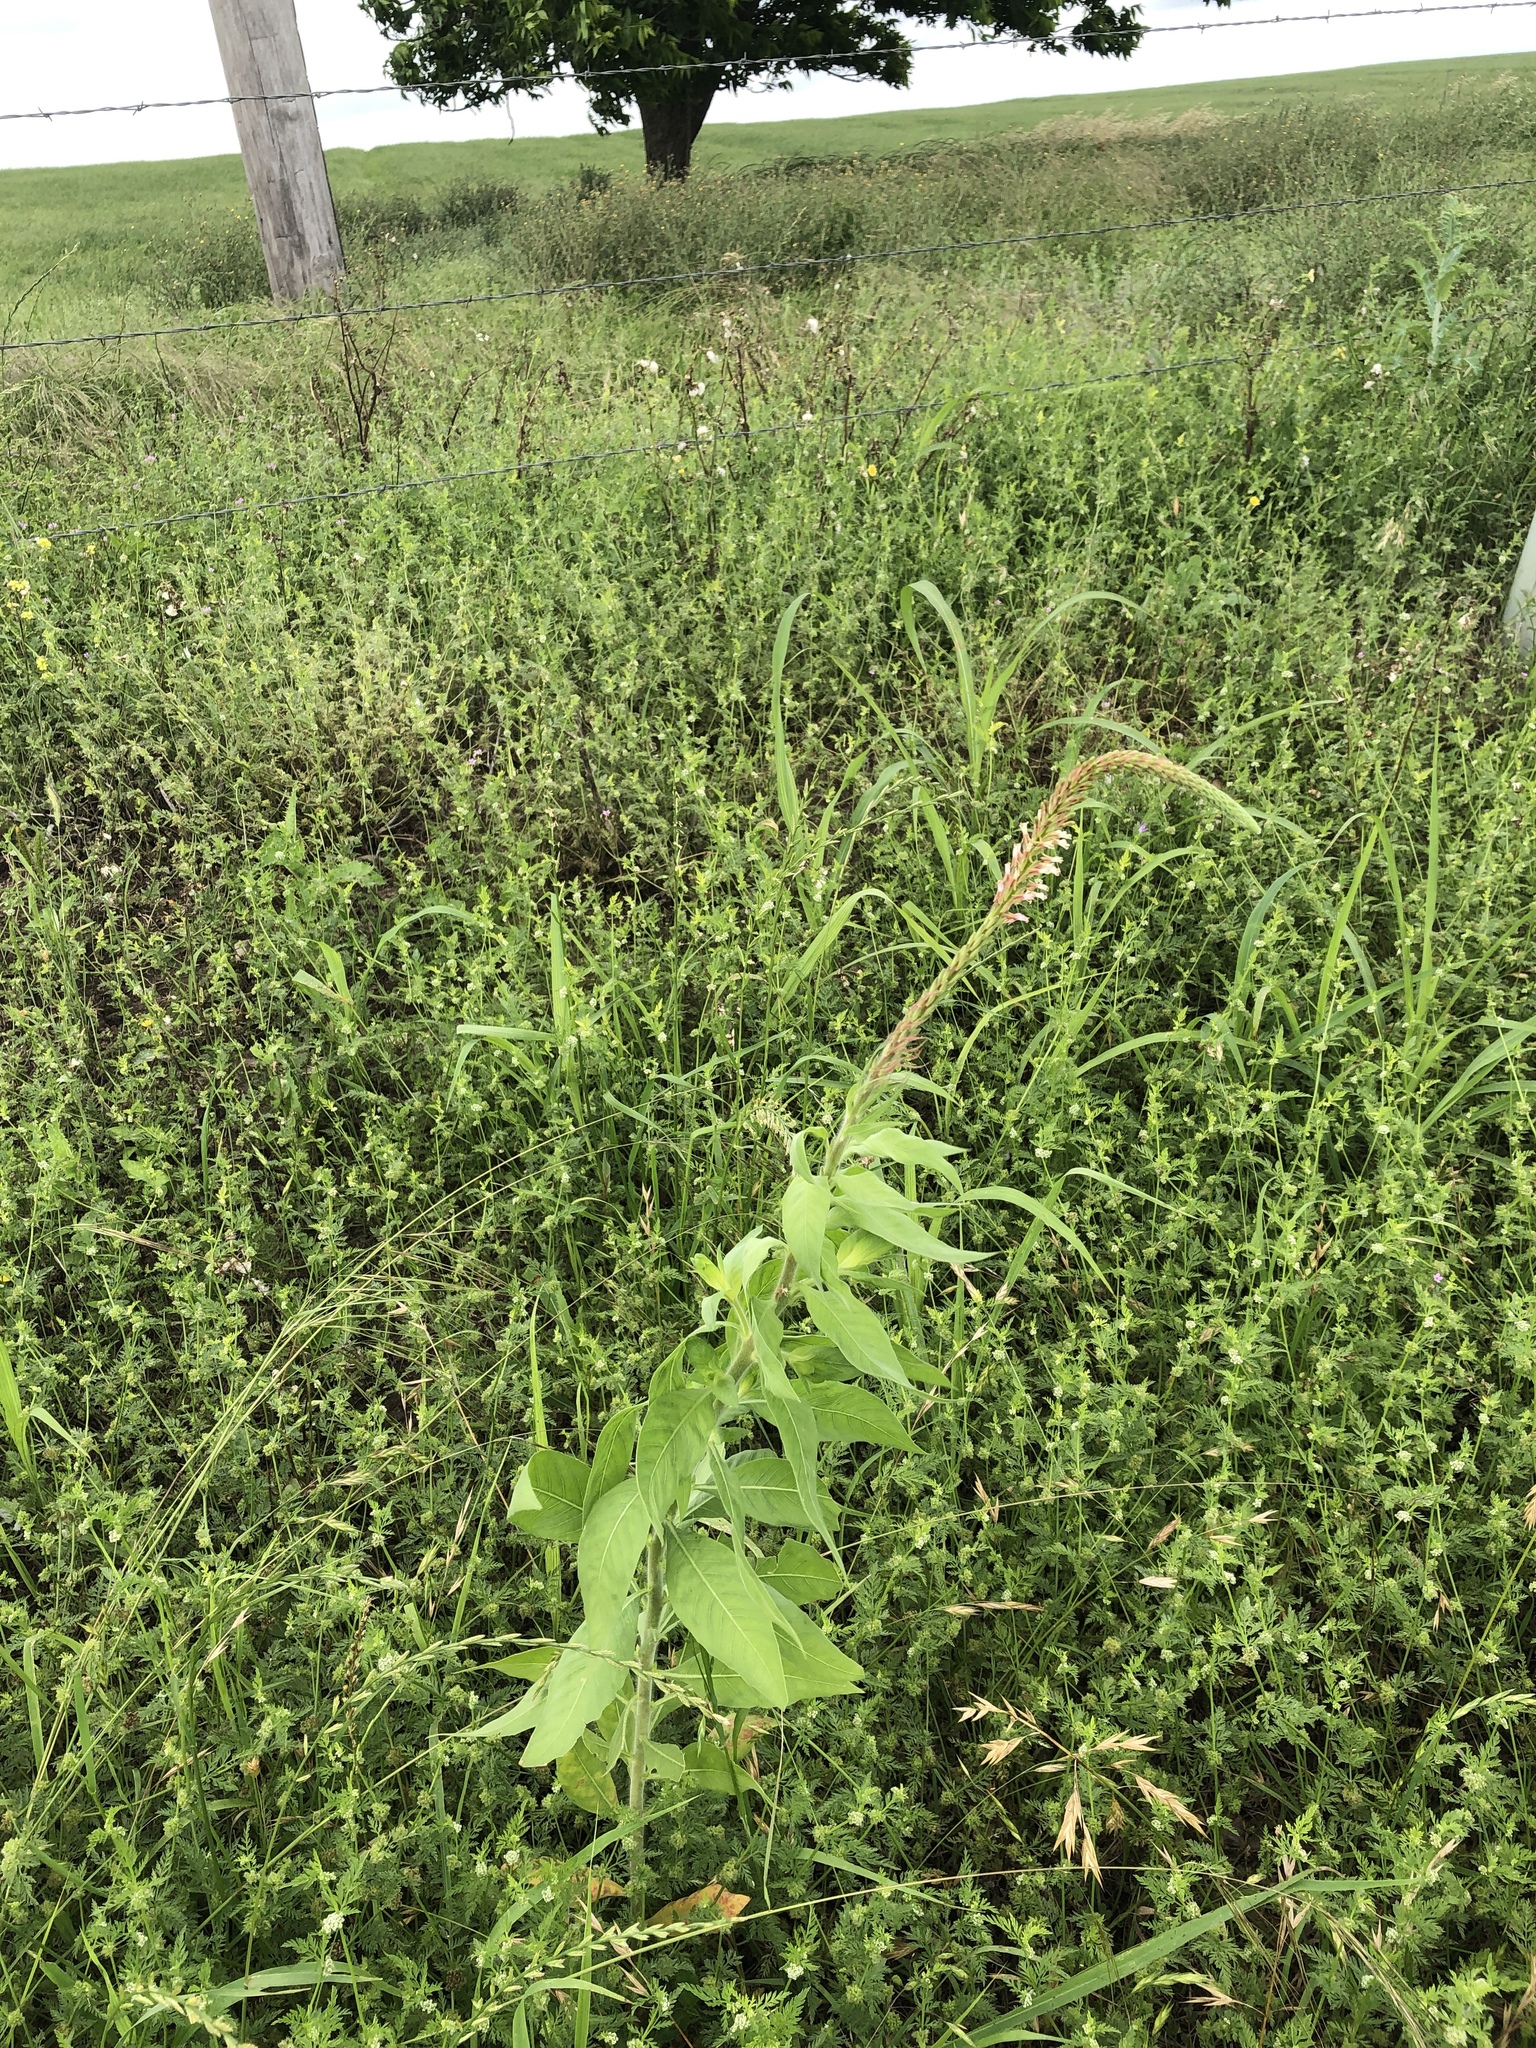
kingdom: Plantae
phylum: Tracheophyta
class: Magnoliopsida
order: Myrtales
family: Onagraceae
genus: Oenothera
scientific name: Oenothera curtiflora
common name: Velvetweed
